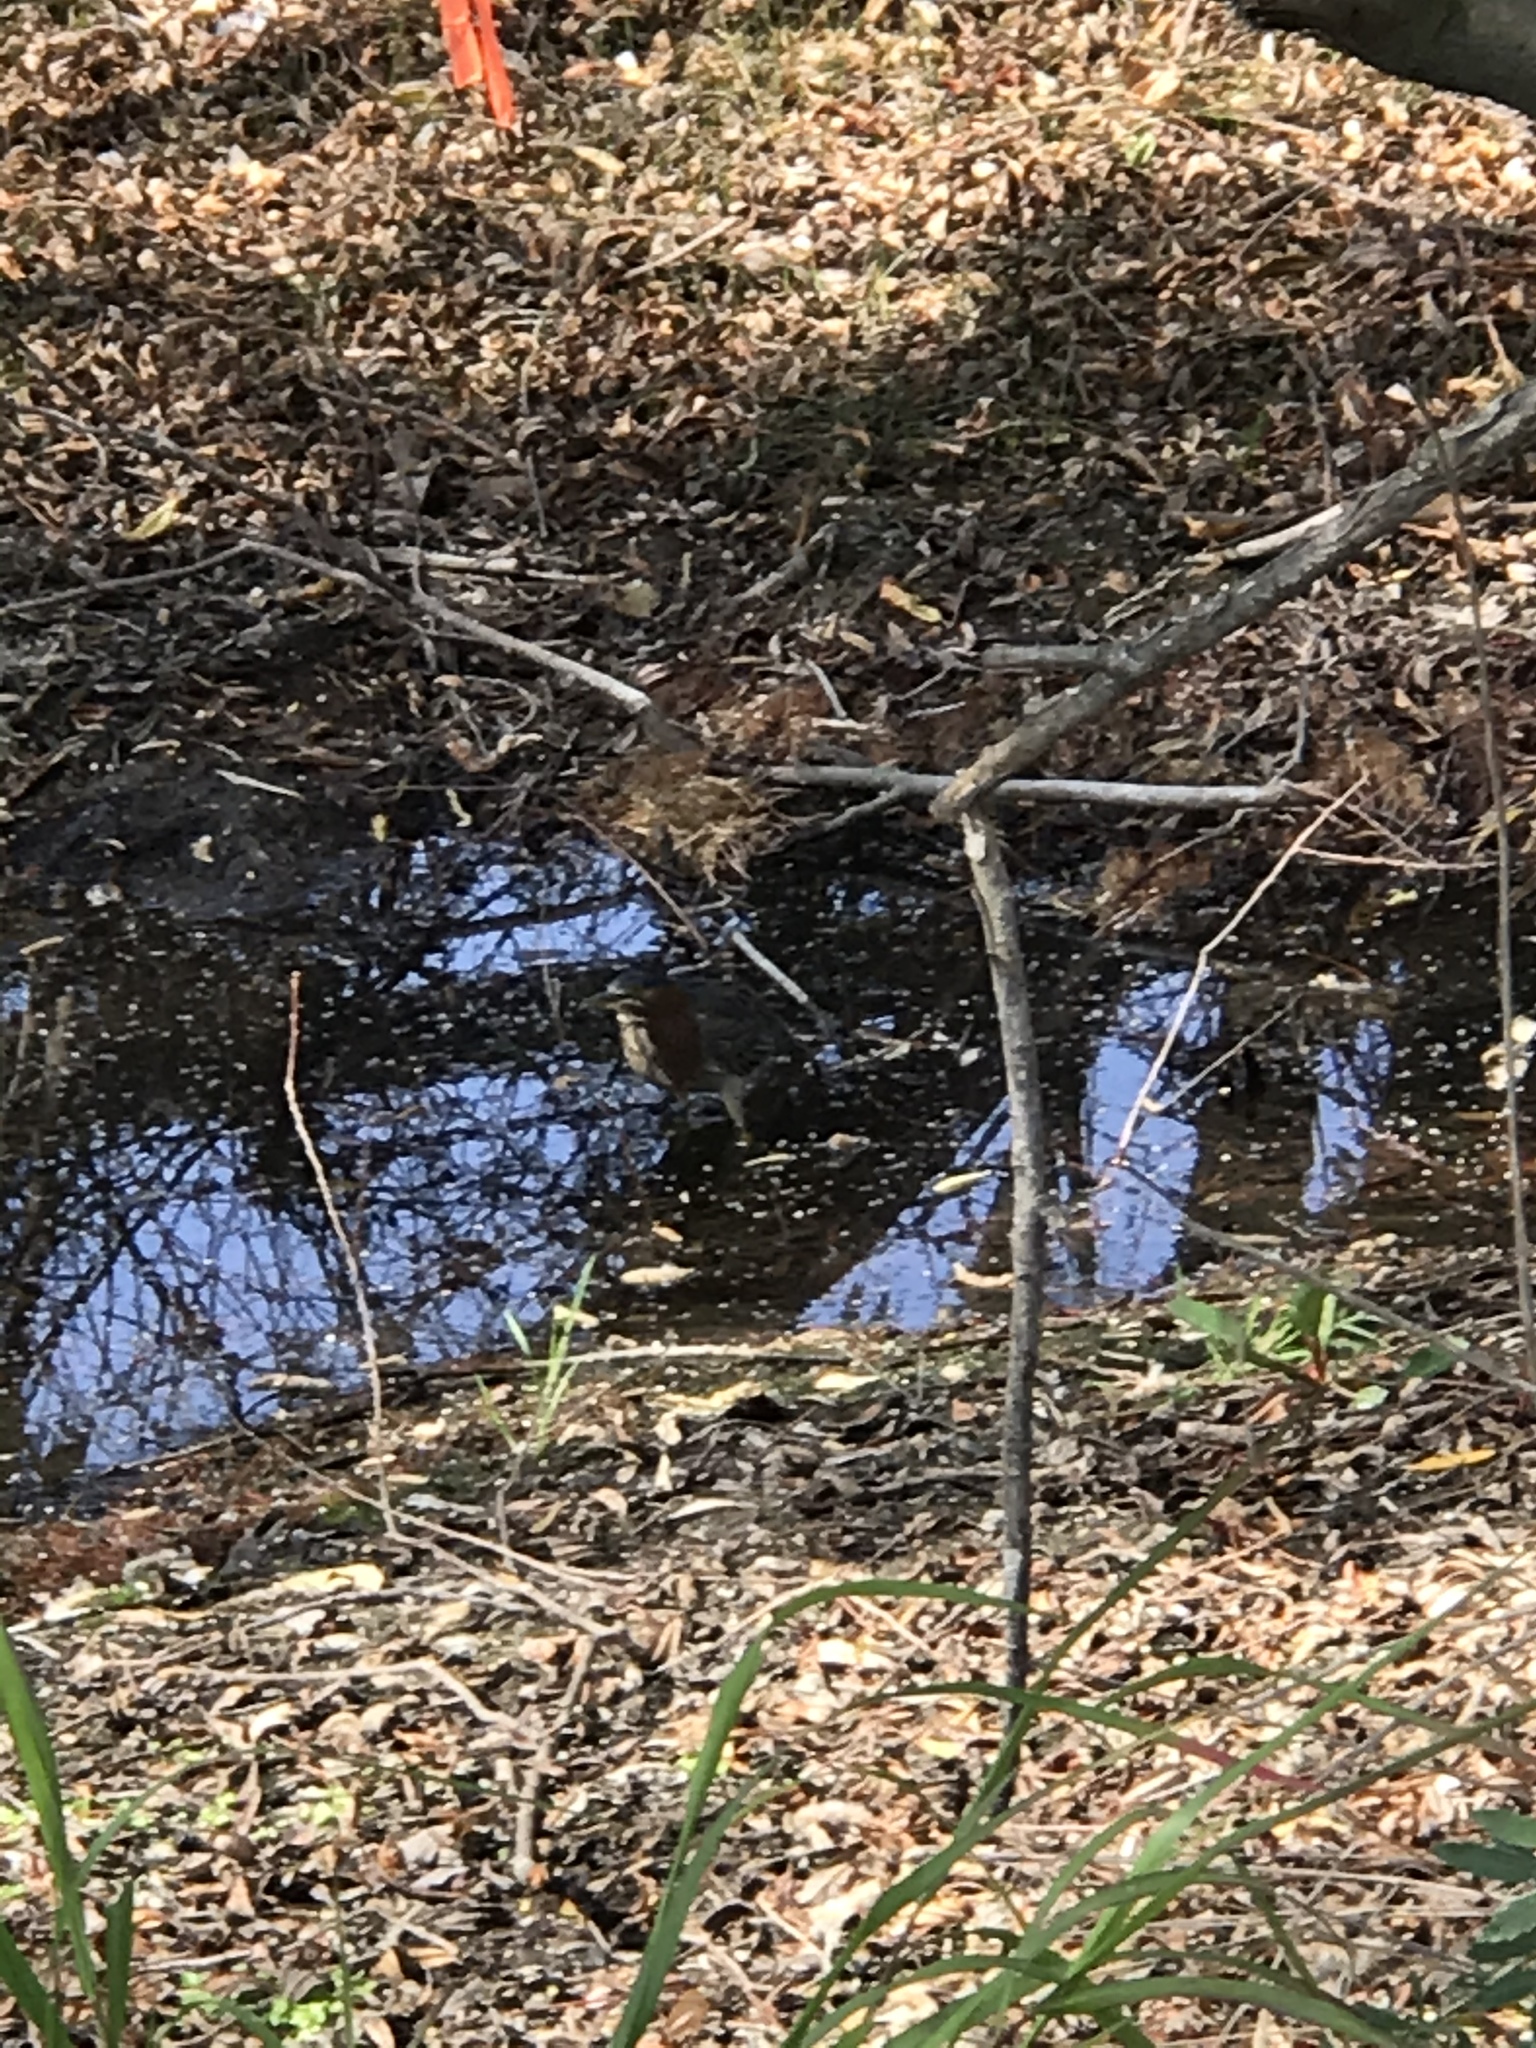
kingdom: Animalia
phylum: Chordata
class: Aves
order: Pelecaniformes
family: Ardeidae
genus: Butorides
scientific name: Butorides virescens
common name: Green heron
